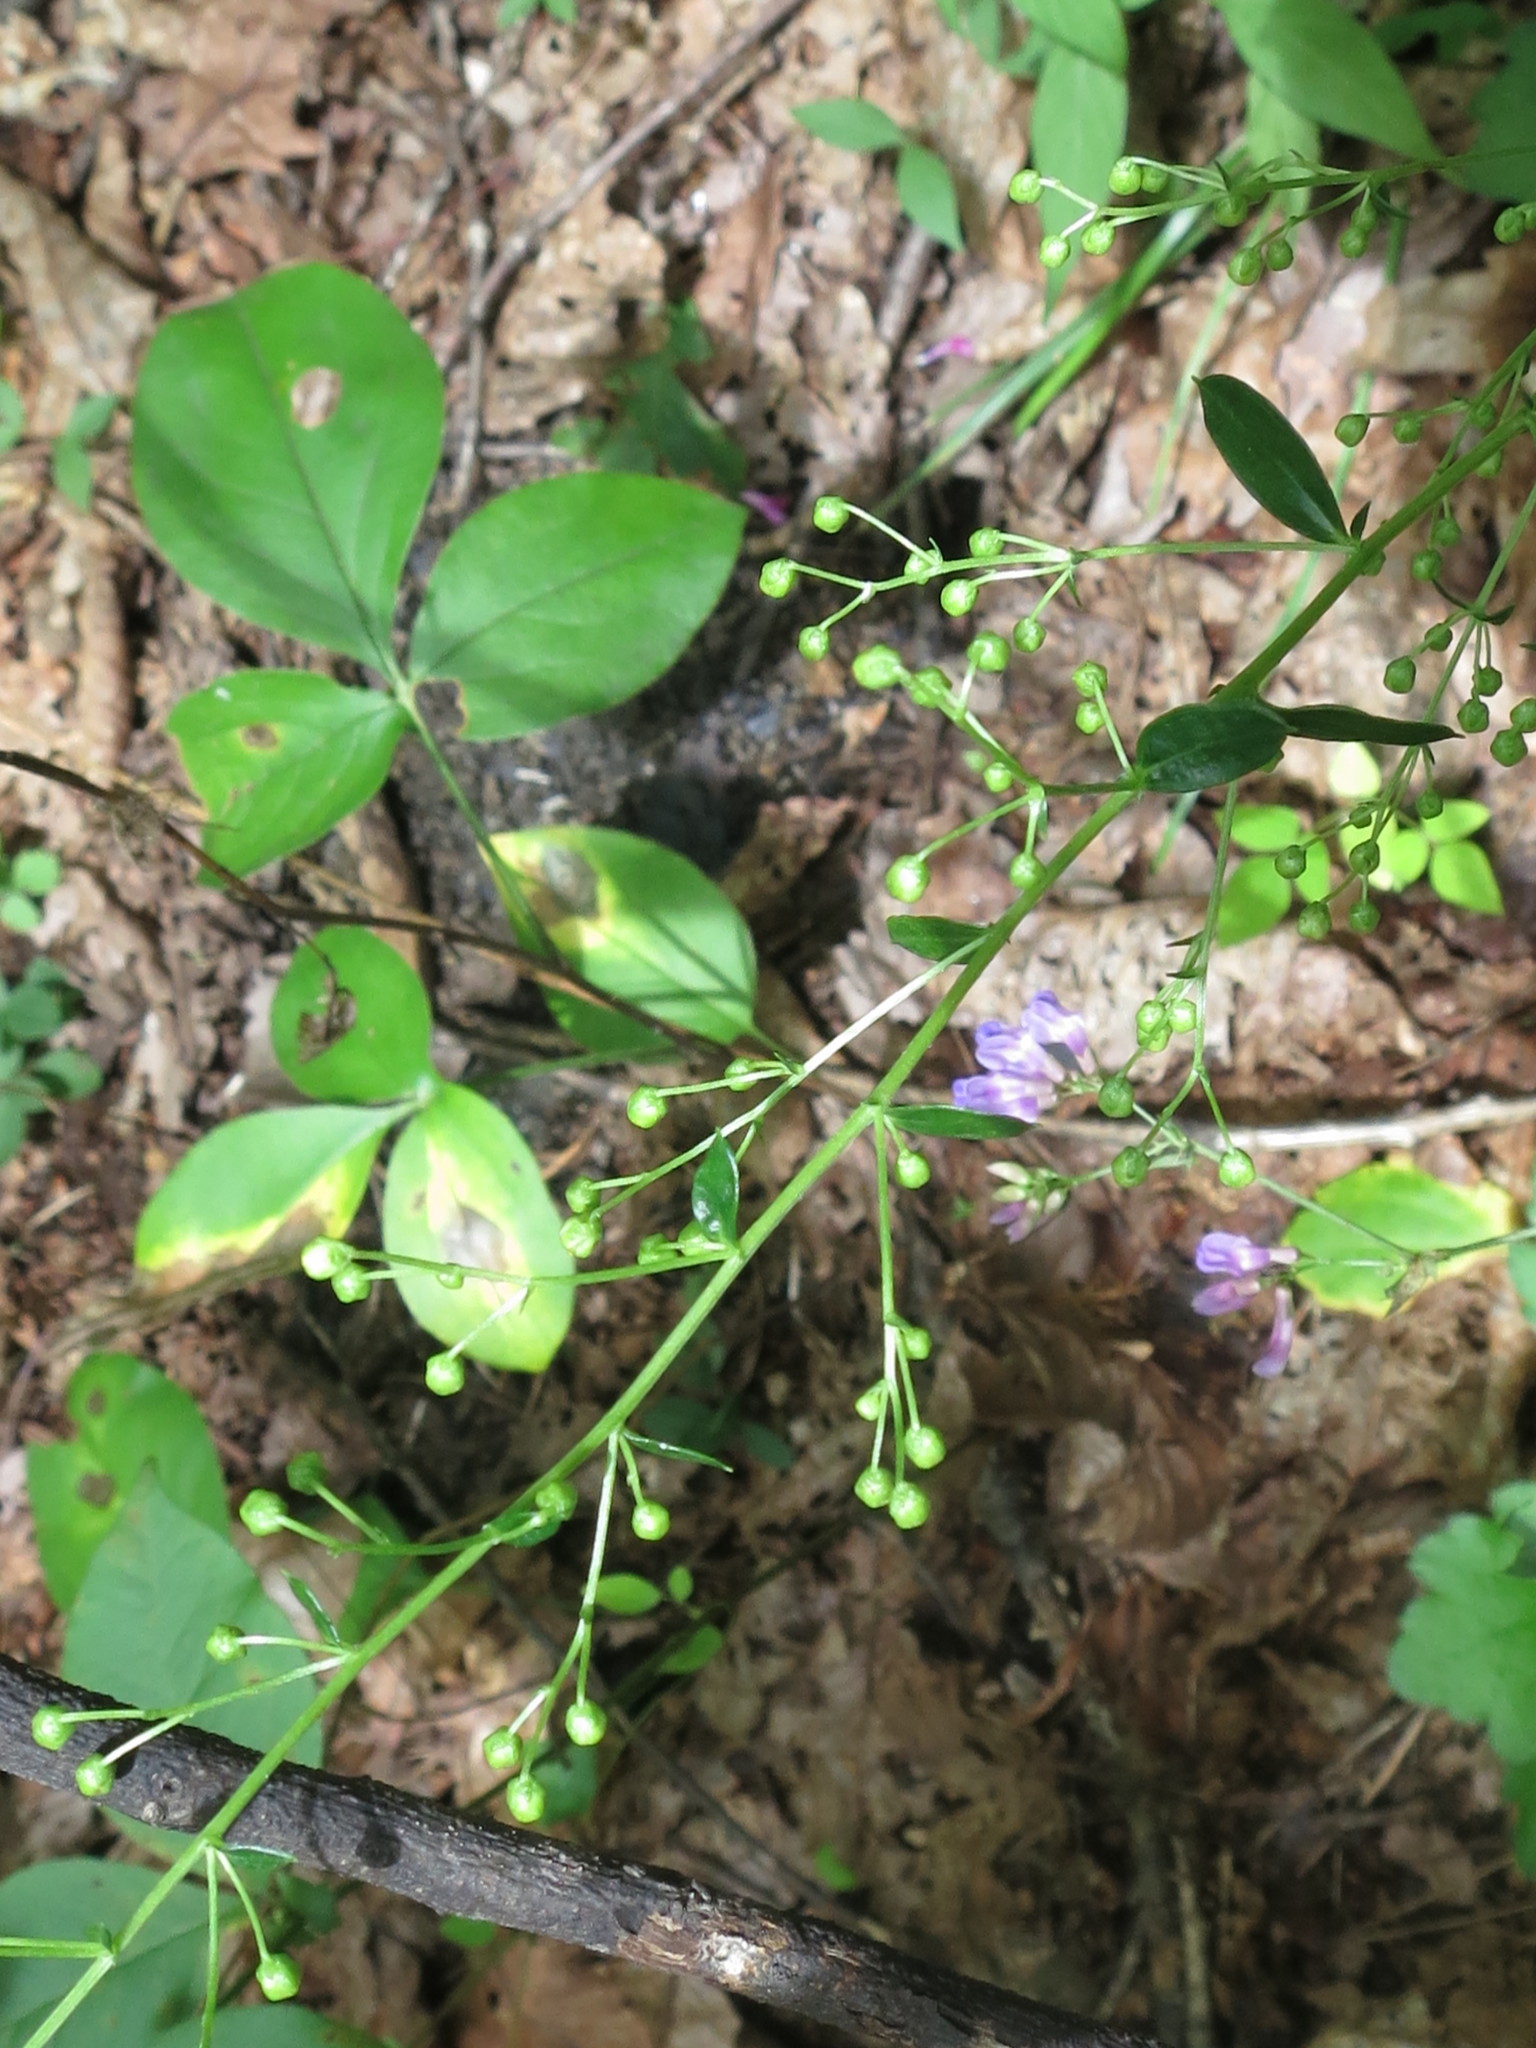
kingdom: Plantae
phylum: Tracheophyta
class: Magnoliopsida
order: Asterales
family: Asteraceae
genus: Artemisia
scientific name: Artemisia keiskeana
